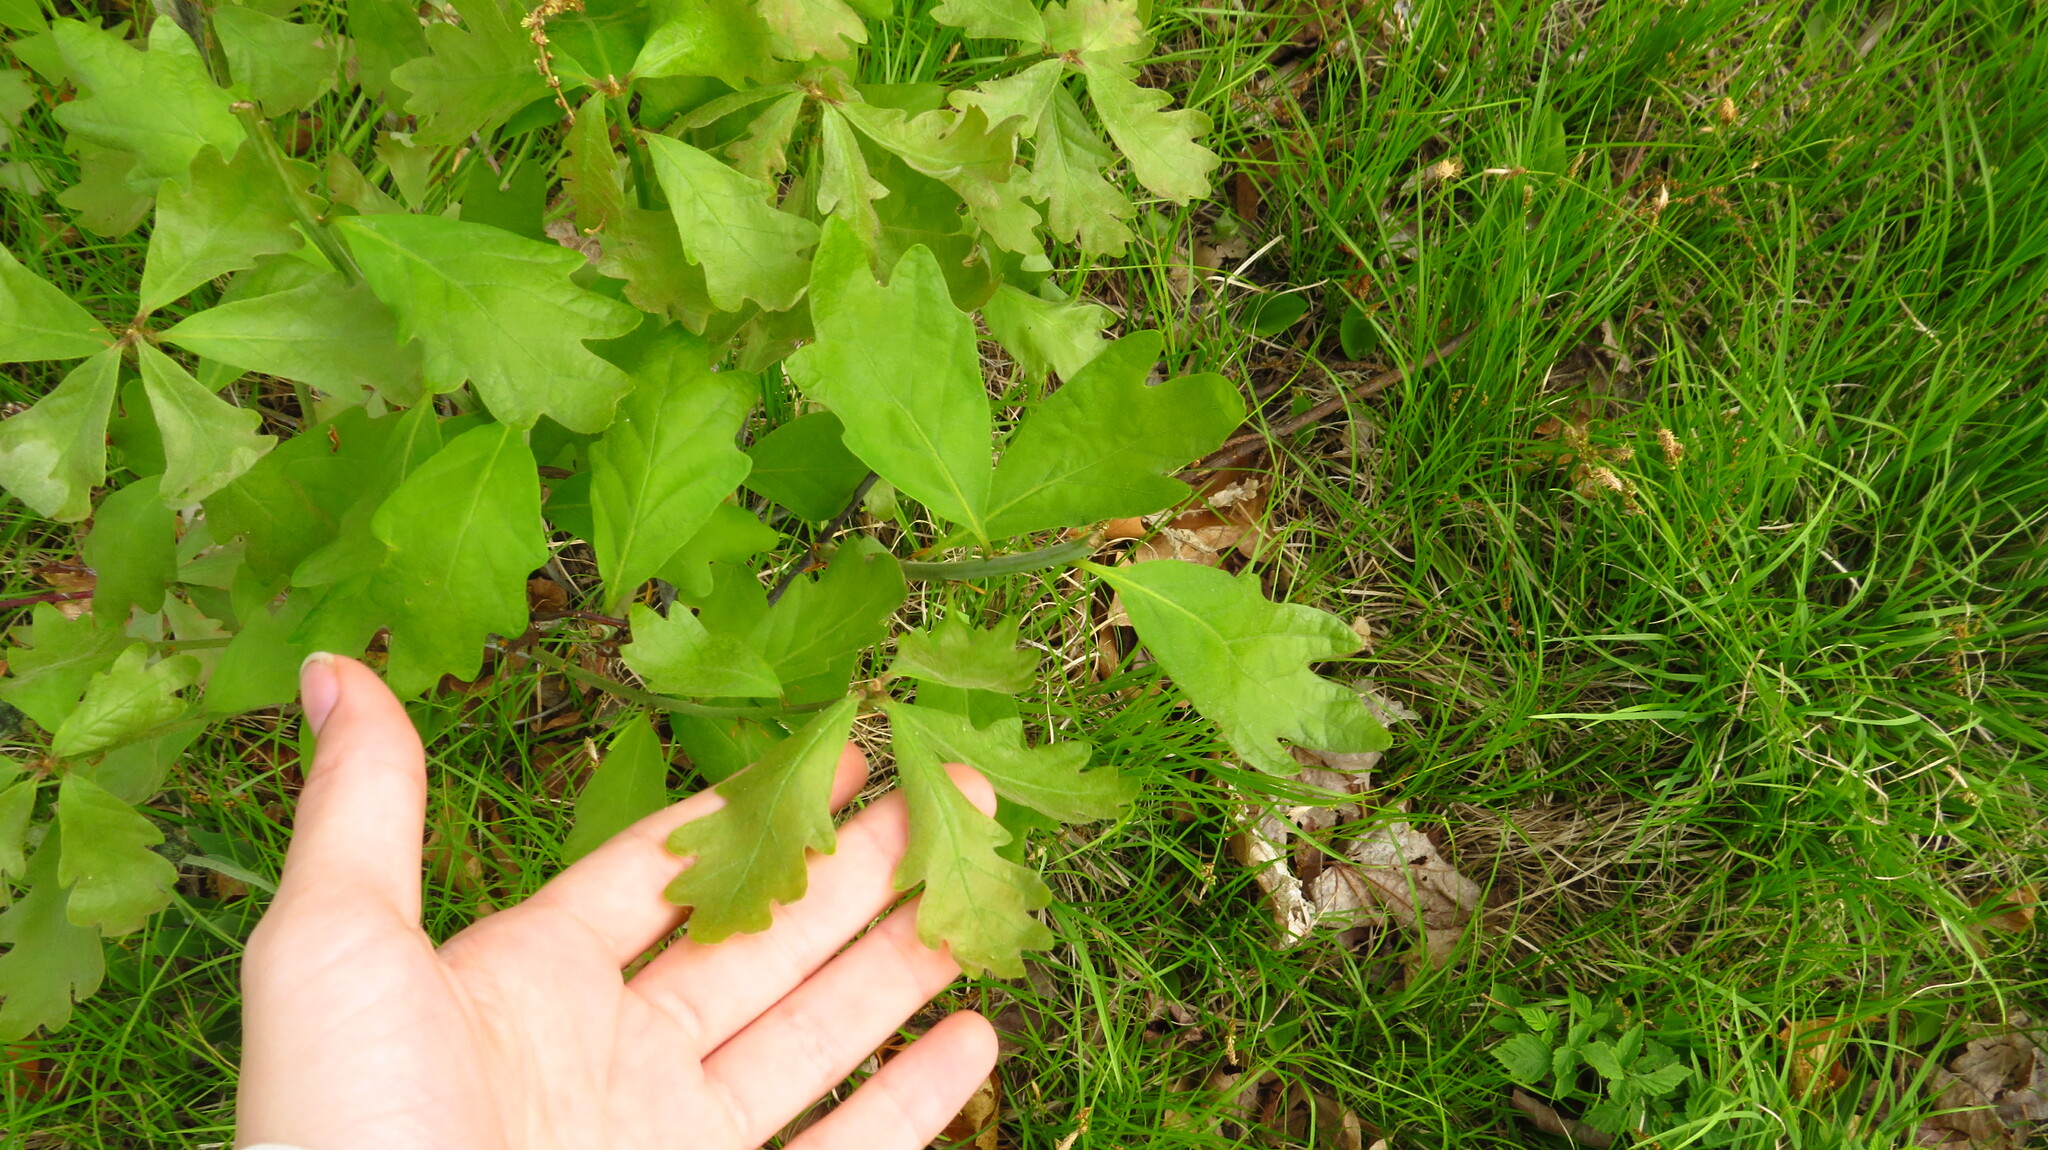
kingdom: Plantae
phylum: Tracheophyta
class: Magnoliopsida
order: Fagales
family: Fagaceae
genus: Quercus
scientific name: Quercus alba
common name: White oak
